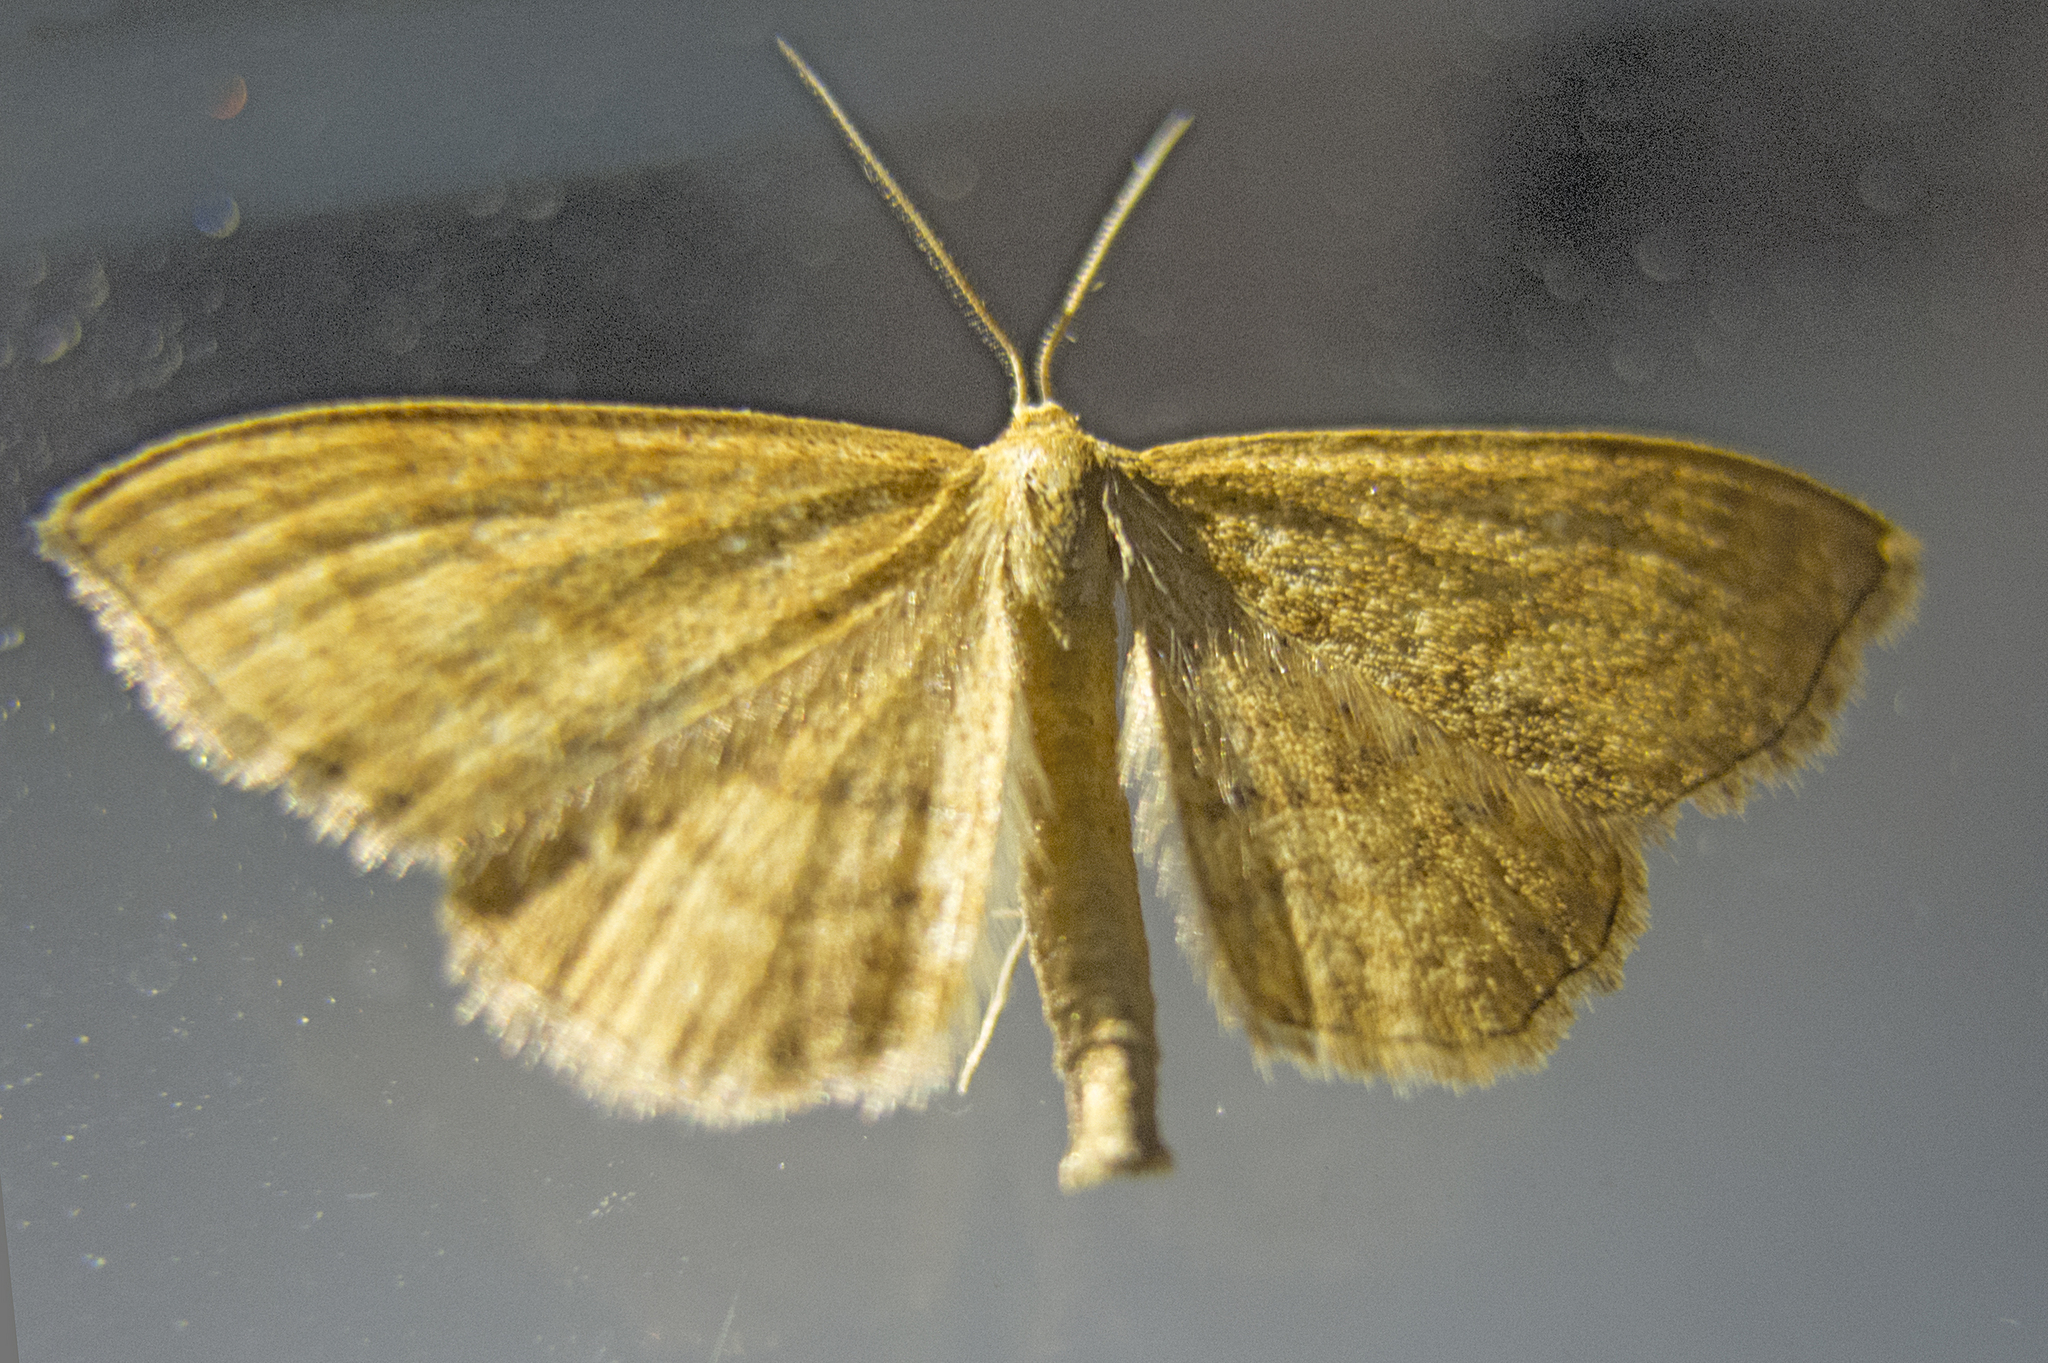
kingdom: Animalia
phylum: Arthropoda
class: Insecta
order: Lepidoptera
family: Geometridae
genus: Idaea
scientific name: Idaea ochrata
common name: Bright wave
